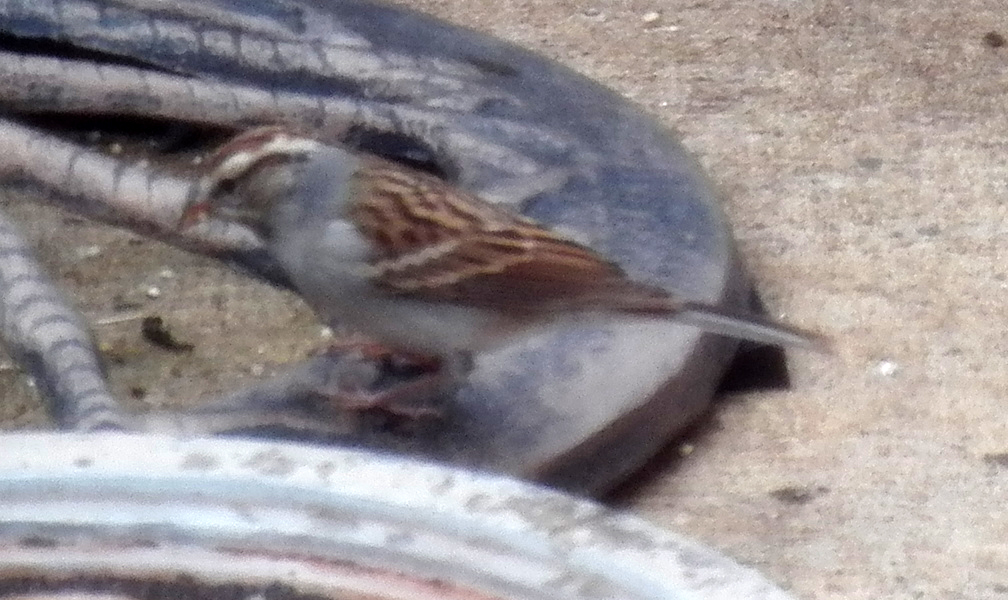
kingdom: Animalia
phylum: Chordata
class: Aves
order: Passeriformes
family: Passerellidae
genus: Spizella
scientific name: Spizella passerina
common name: Chipping sparrow
